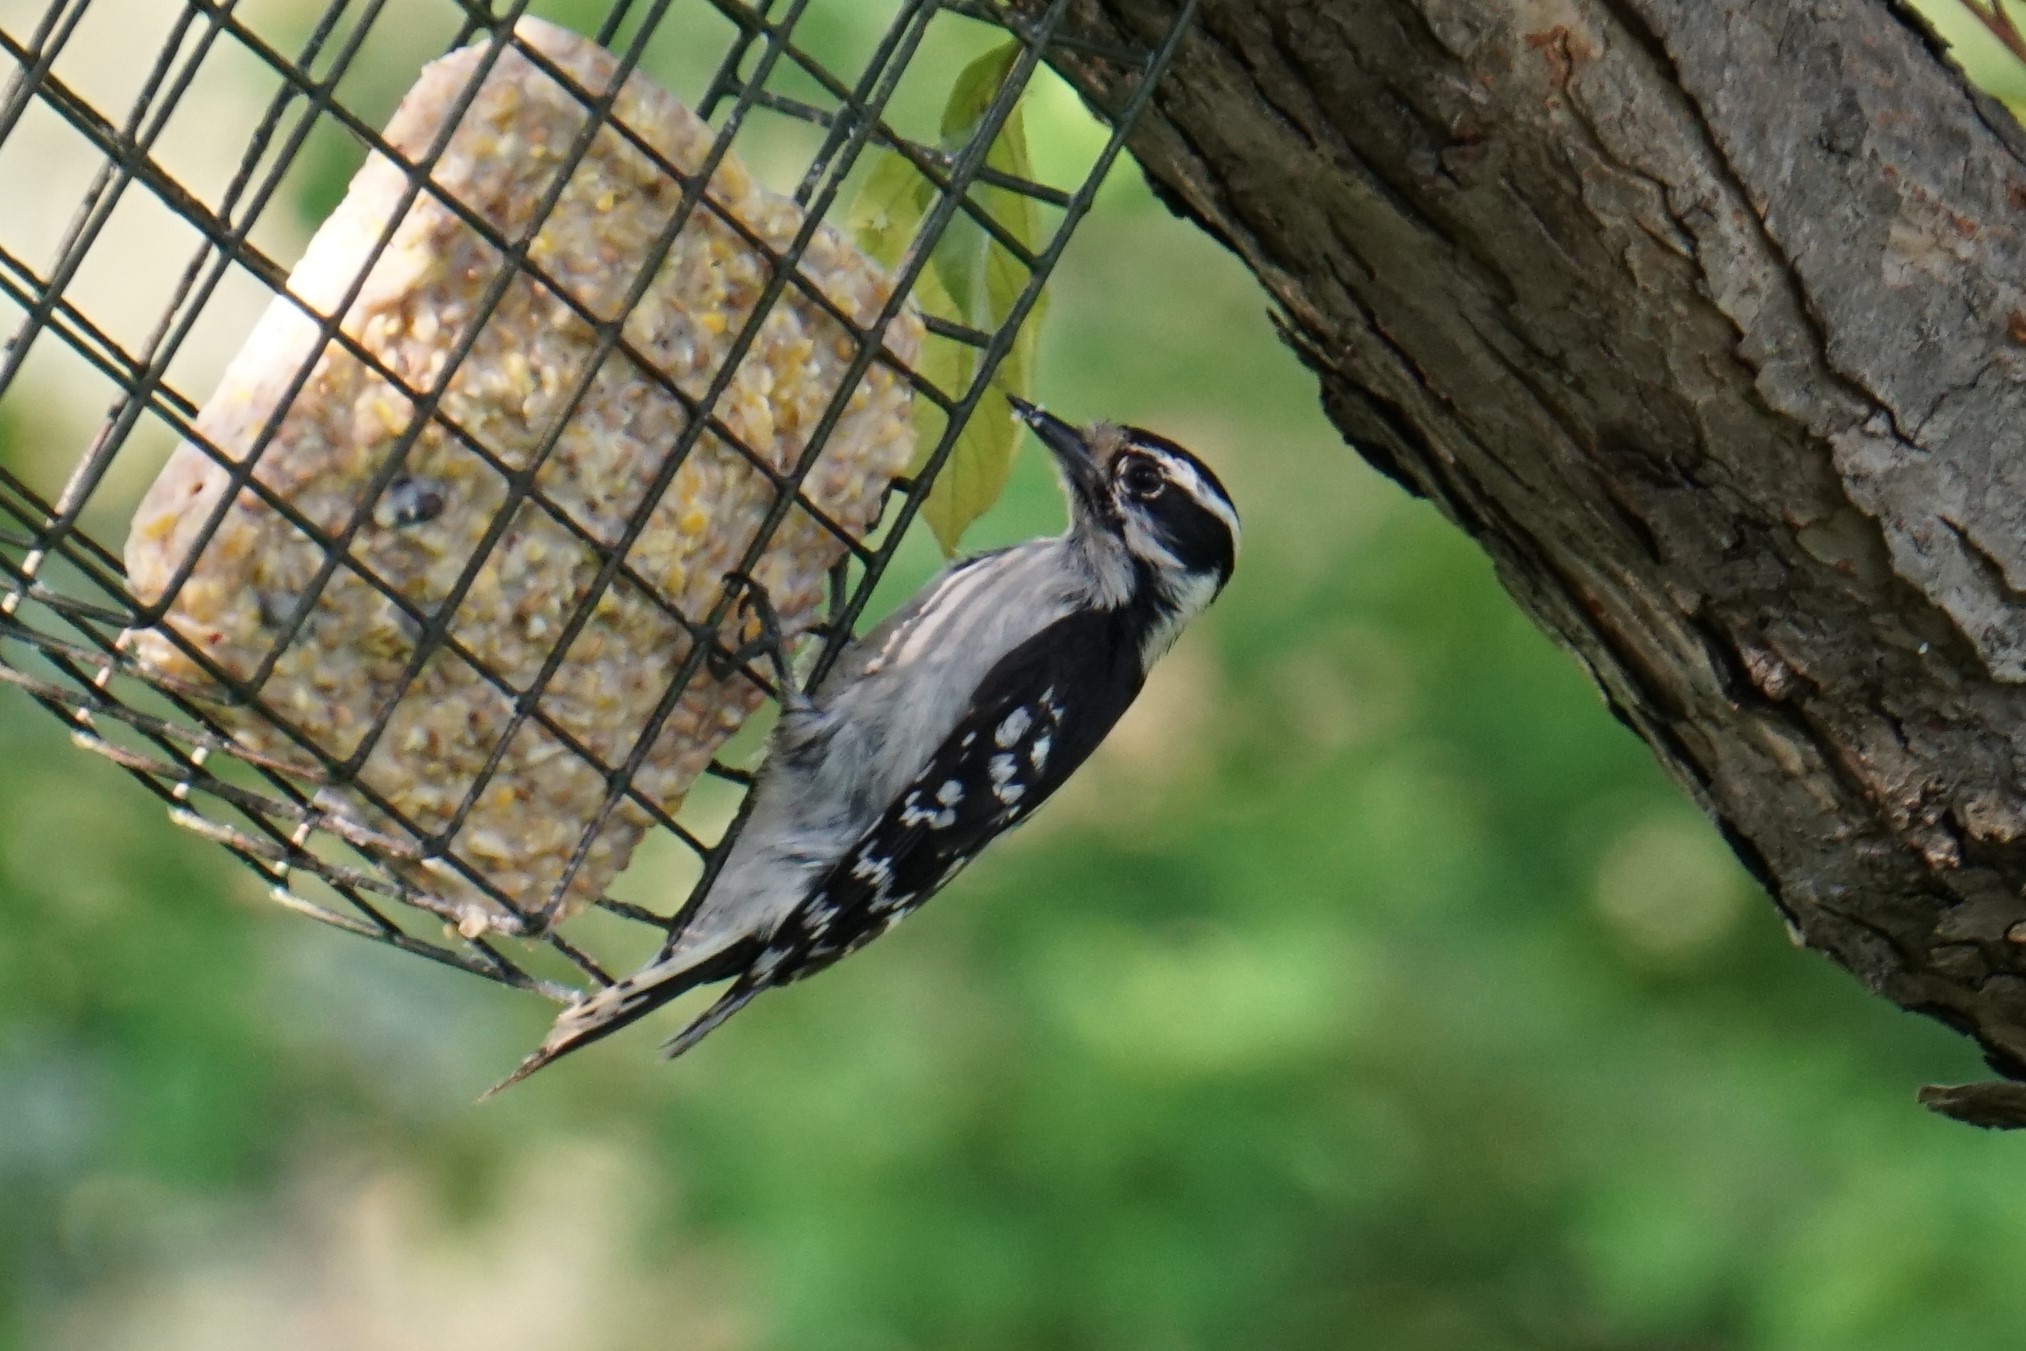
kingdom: Animalia
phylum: Chordata
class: Aves
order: Piciformes
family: Picidae
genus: Dryobates
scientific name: Dryobates pubescens
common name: Downy woodpecker
